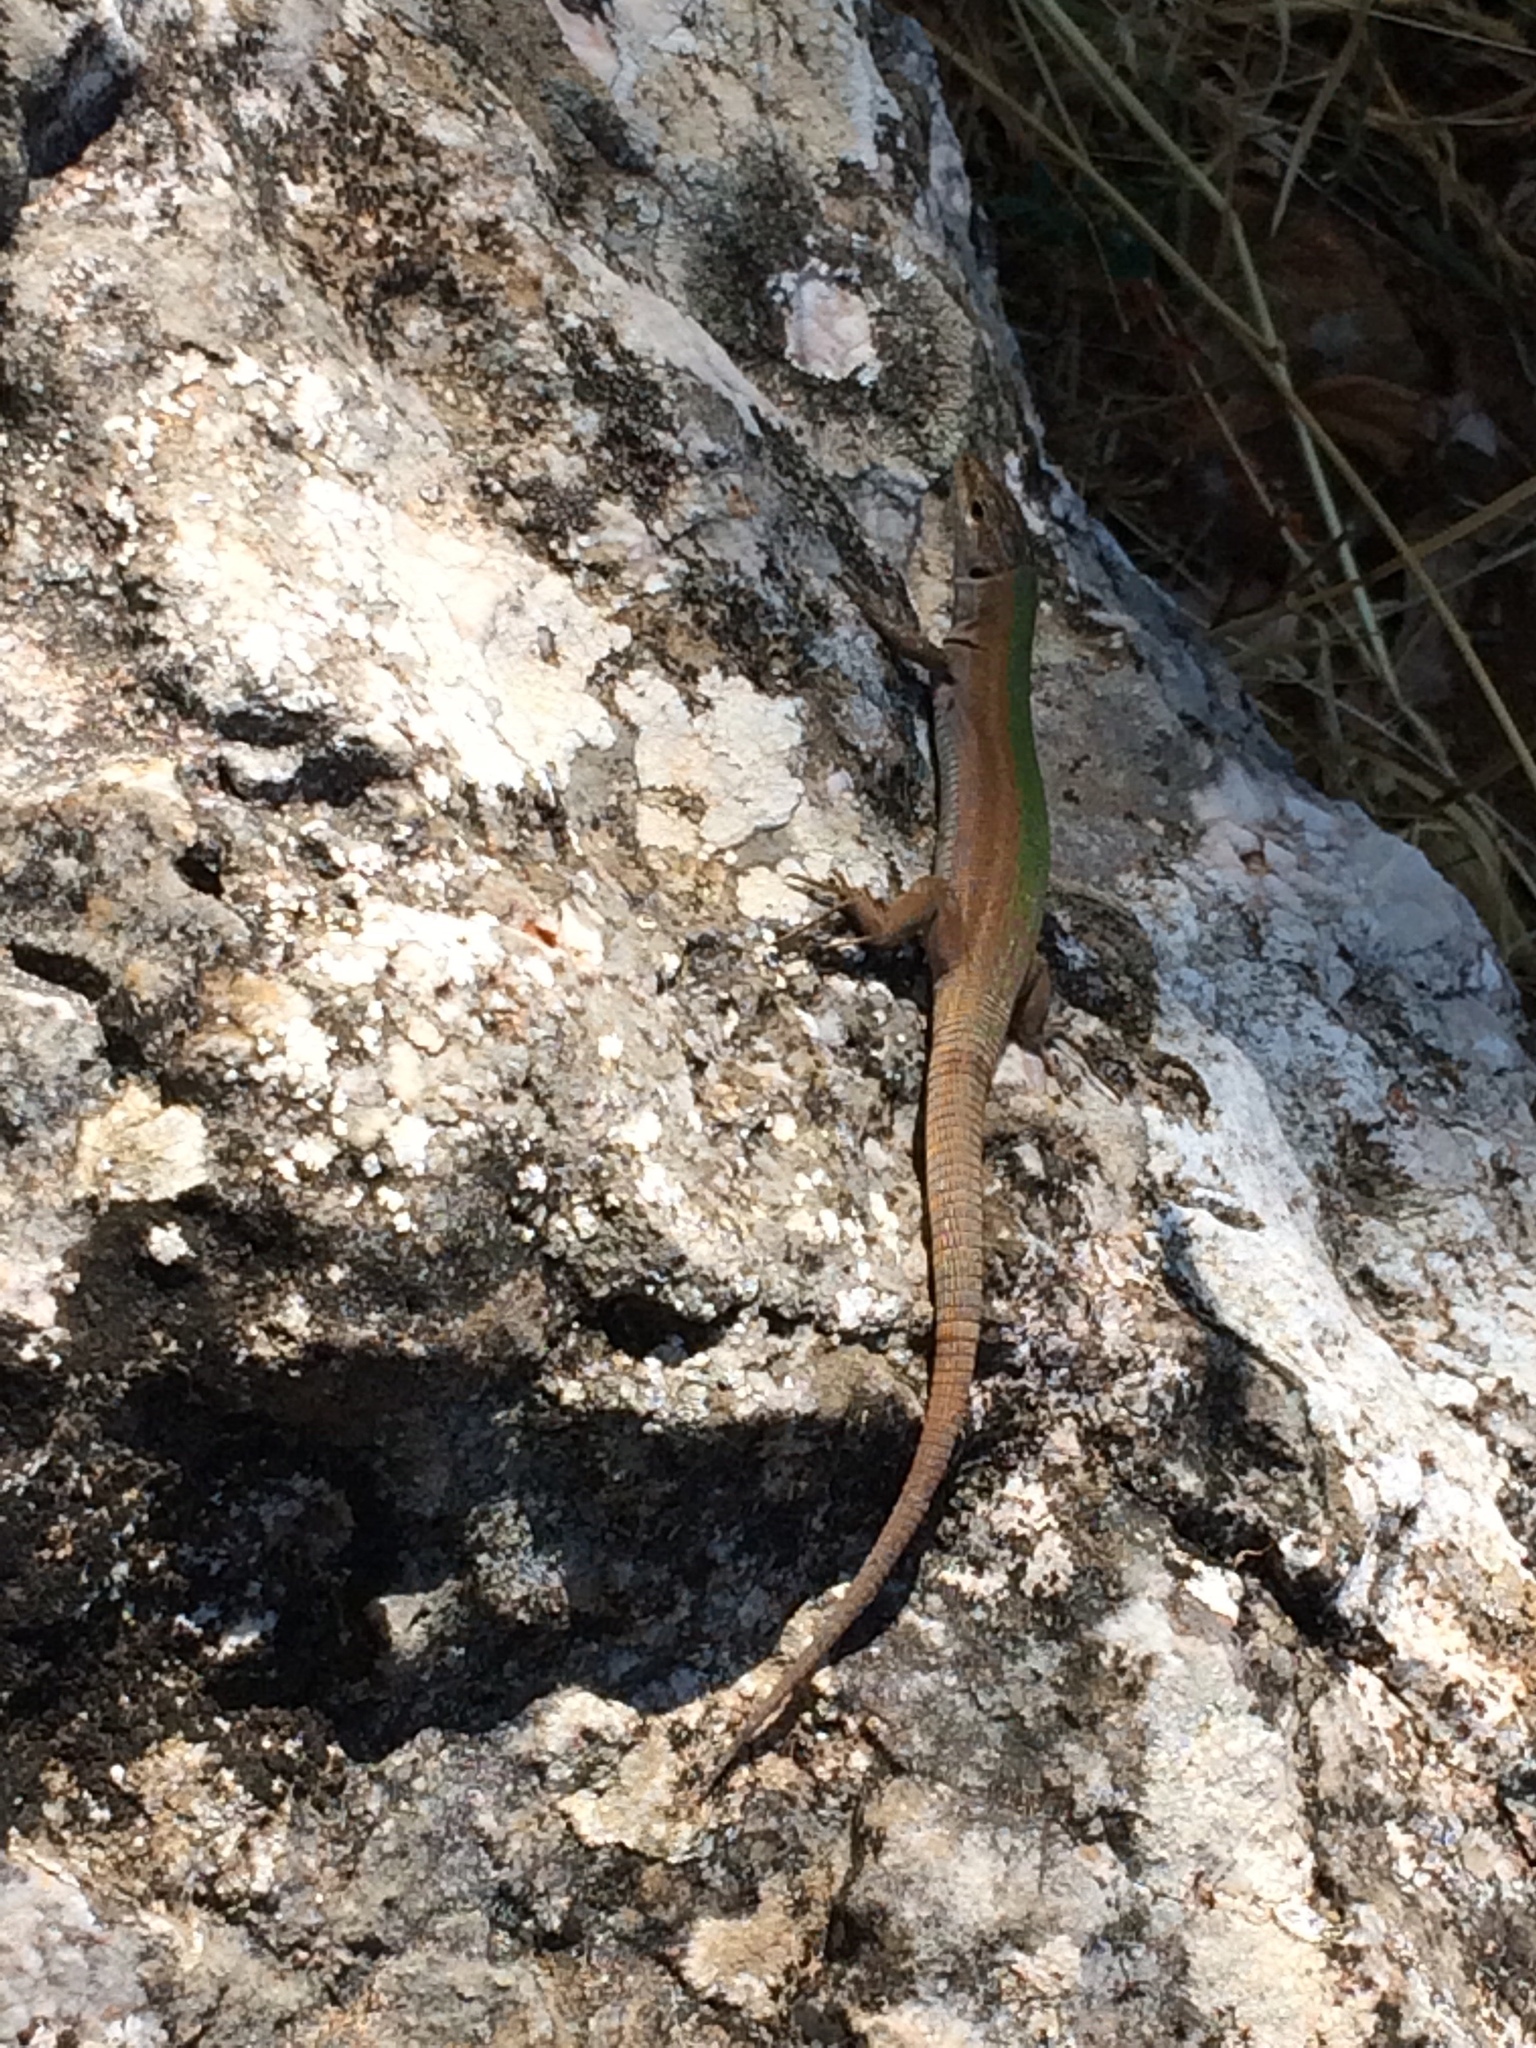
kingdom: Animalia
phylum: Chordata
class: Squamata
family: Lacertidae
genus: Podarcis
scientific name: Podarcis melisellensis
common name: Dalmatian wall lizard
